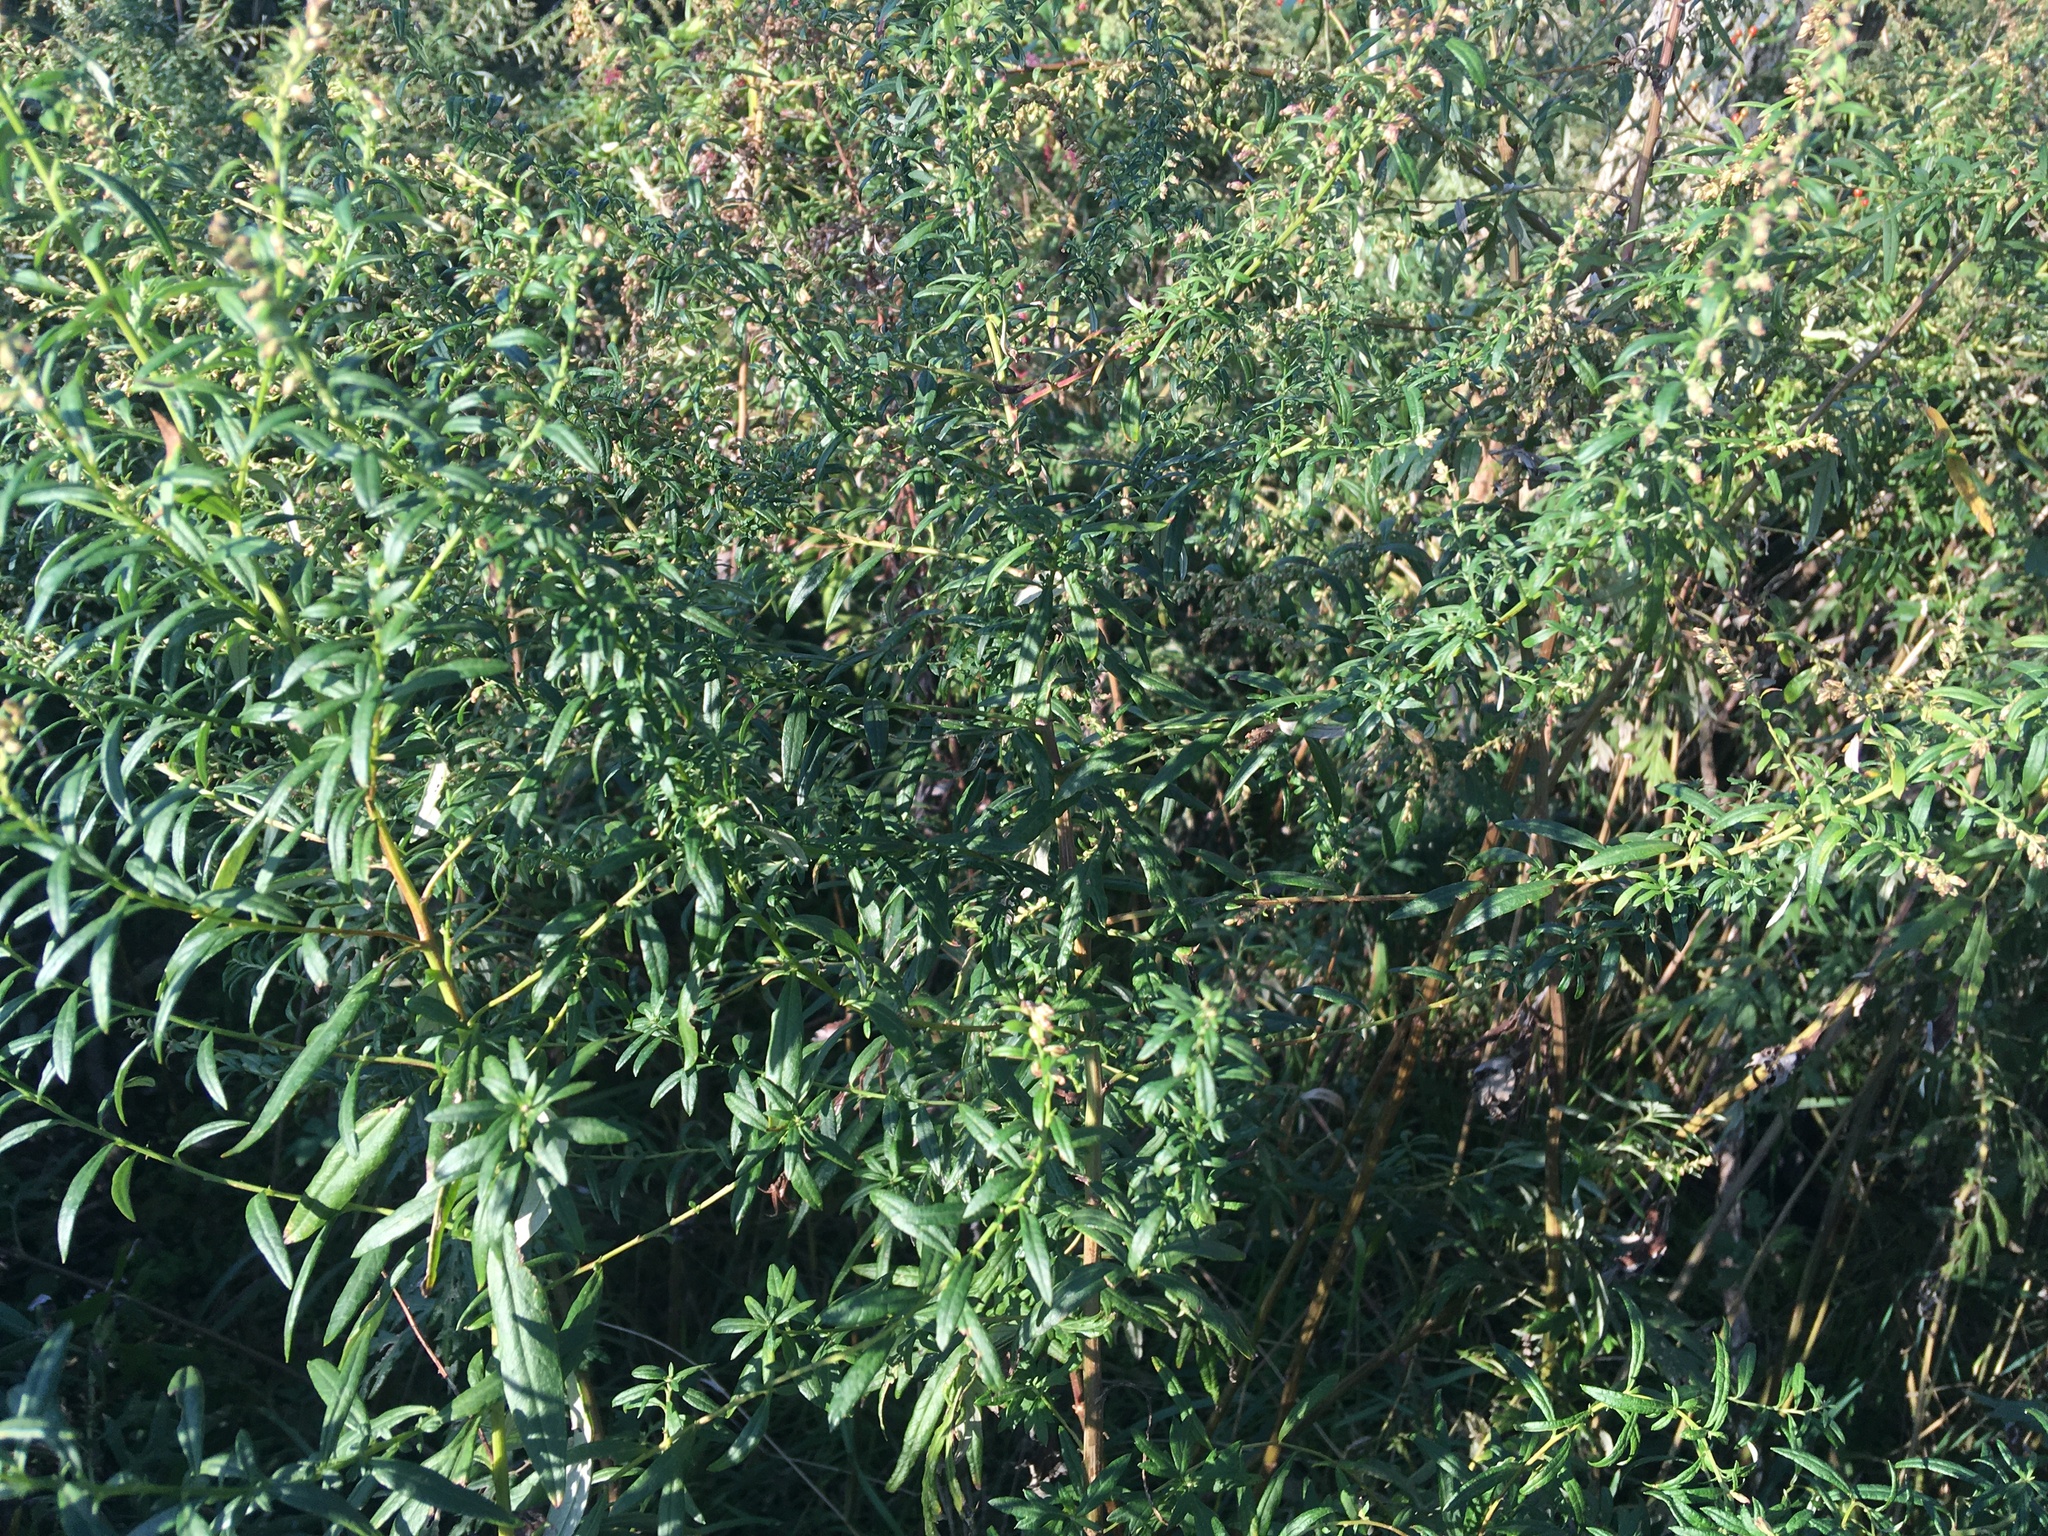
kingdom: Plantae
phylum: Tracheophyta
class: Magnoliopsida
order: Asterales
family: Asteraceae
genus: Artemisia
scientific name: Artemisia vulgaris
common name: Mugwort
